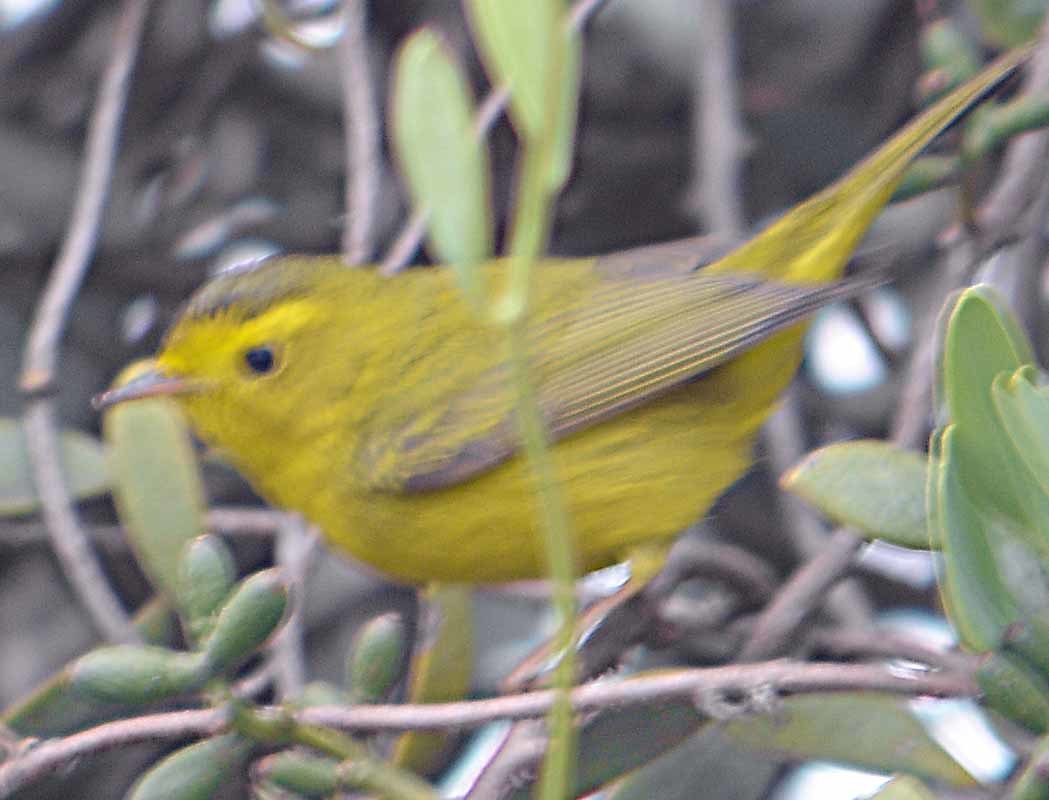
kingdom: Animalia
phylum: Chordata
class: Aves
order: Passeriformes
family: Parulidae
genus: Cardellina
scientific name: Cardellina pusilla
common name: Wilson's warbler
